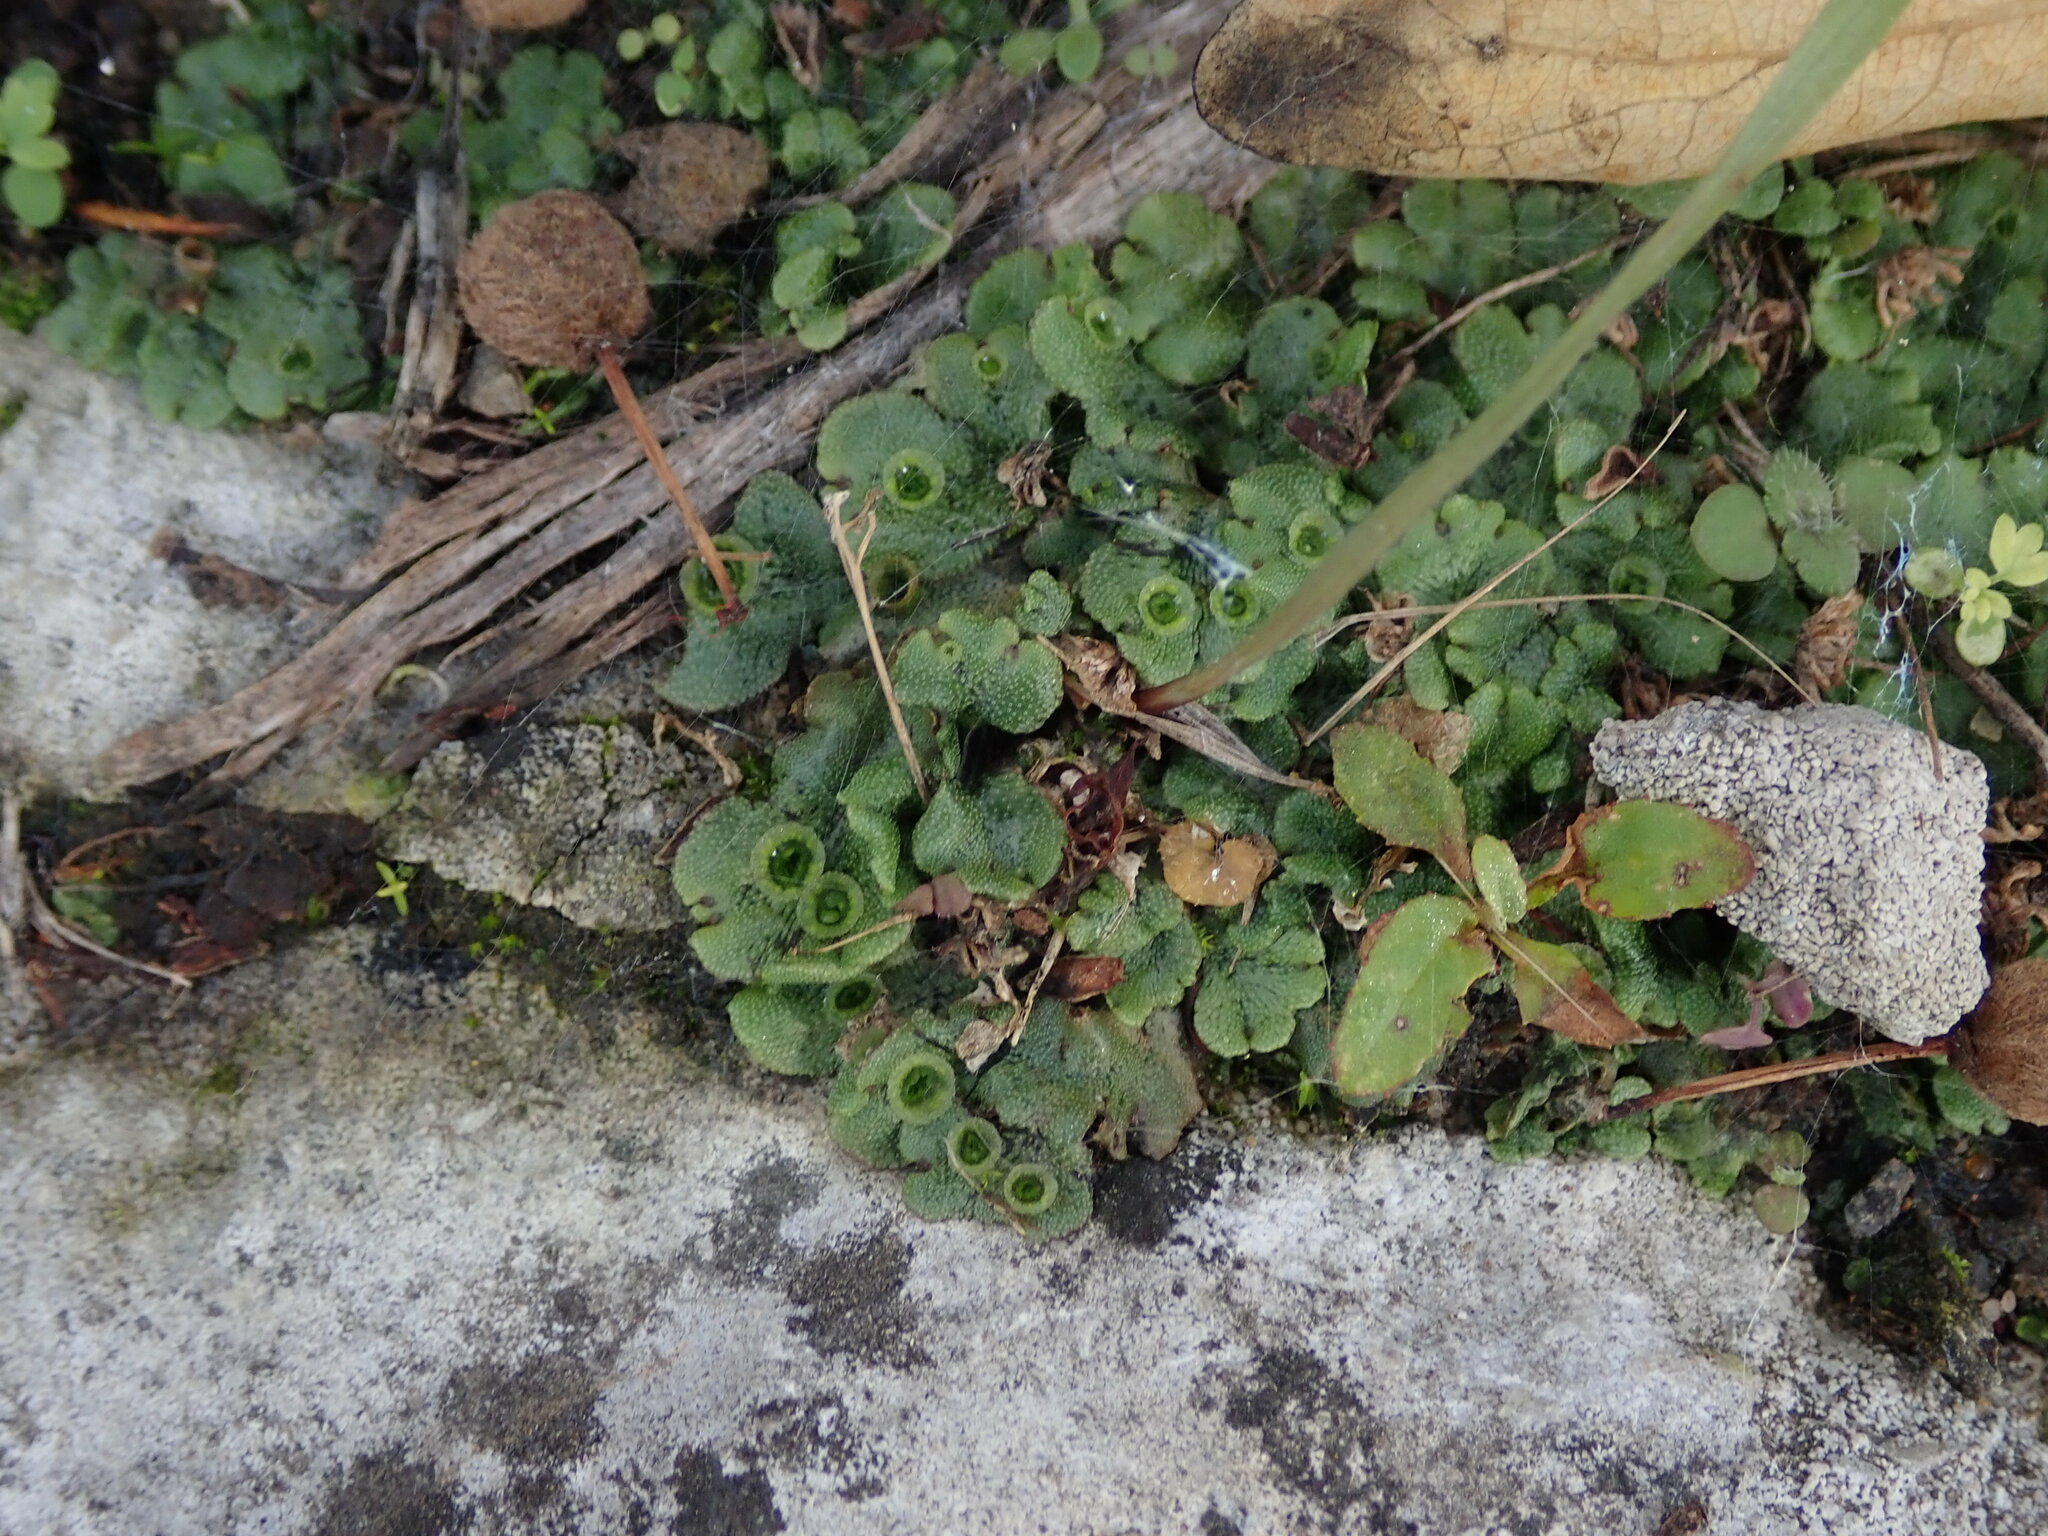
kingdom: Plantae
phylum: Marchantiophyta
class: Marchantiopsida
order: Marchantiales
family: Marchantiaceae
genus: Marchantia
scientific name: Marchantia polymorpha
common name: Common liverwort
